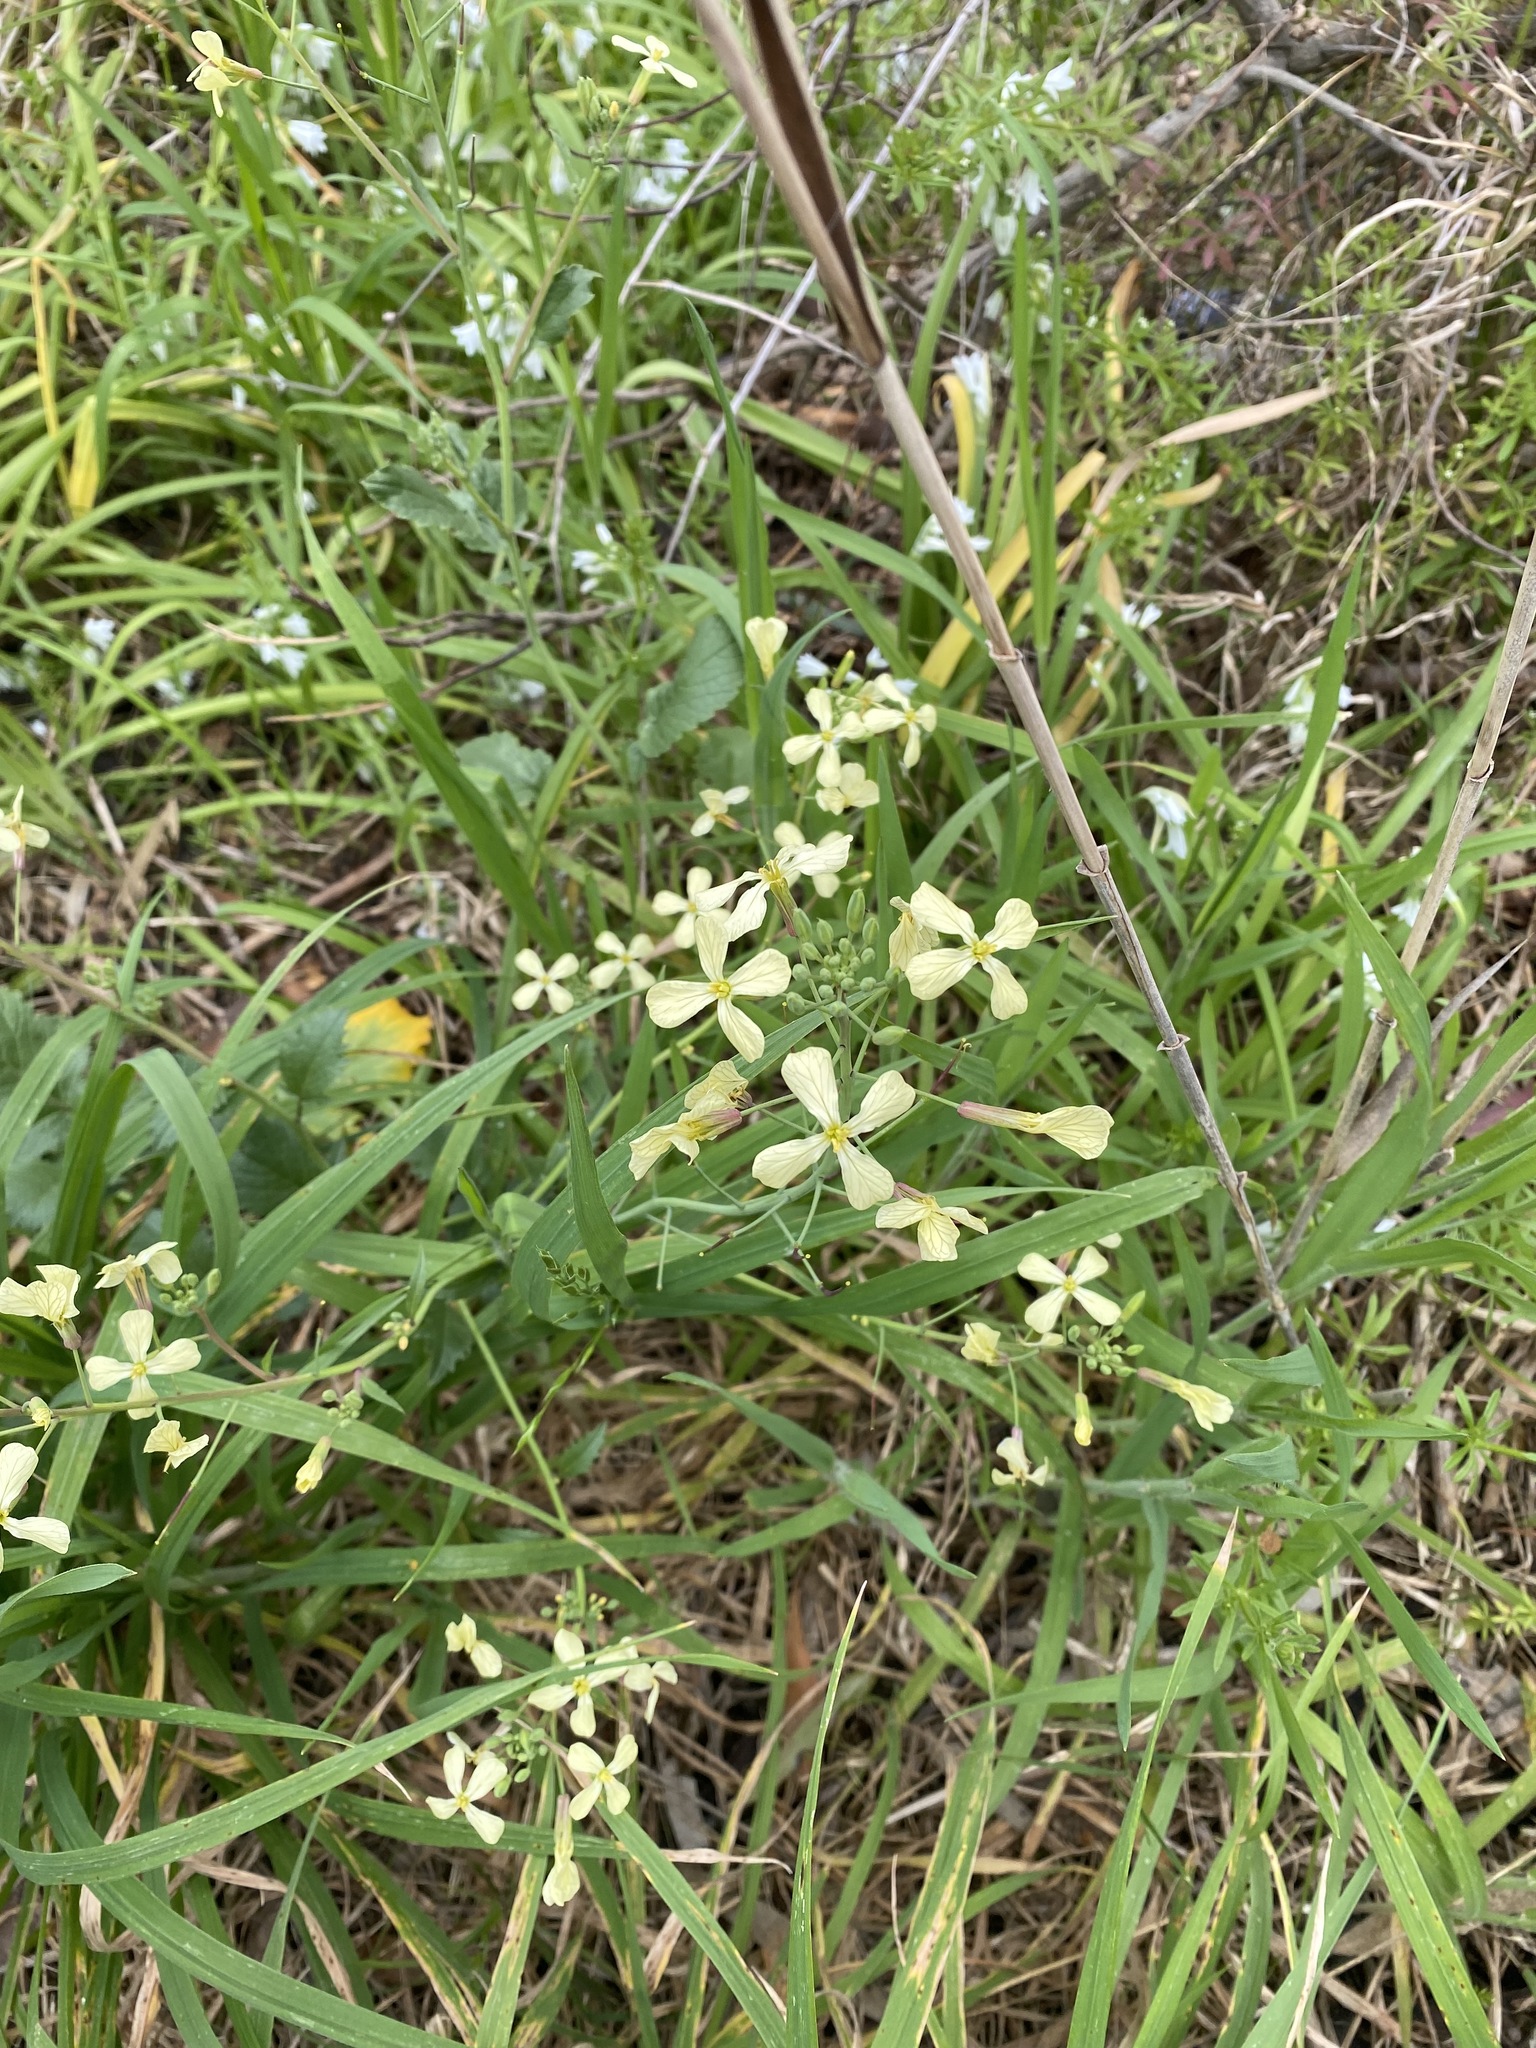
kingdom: Plantae
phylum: Tracheophyta
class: Magnoliopsida
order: Brassicales
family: Brassicaceae
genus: Raphanus
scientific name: Raphanus raphanistrum
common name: Wild radish
